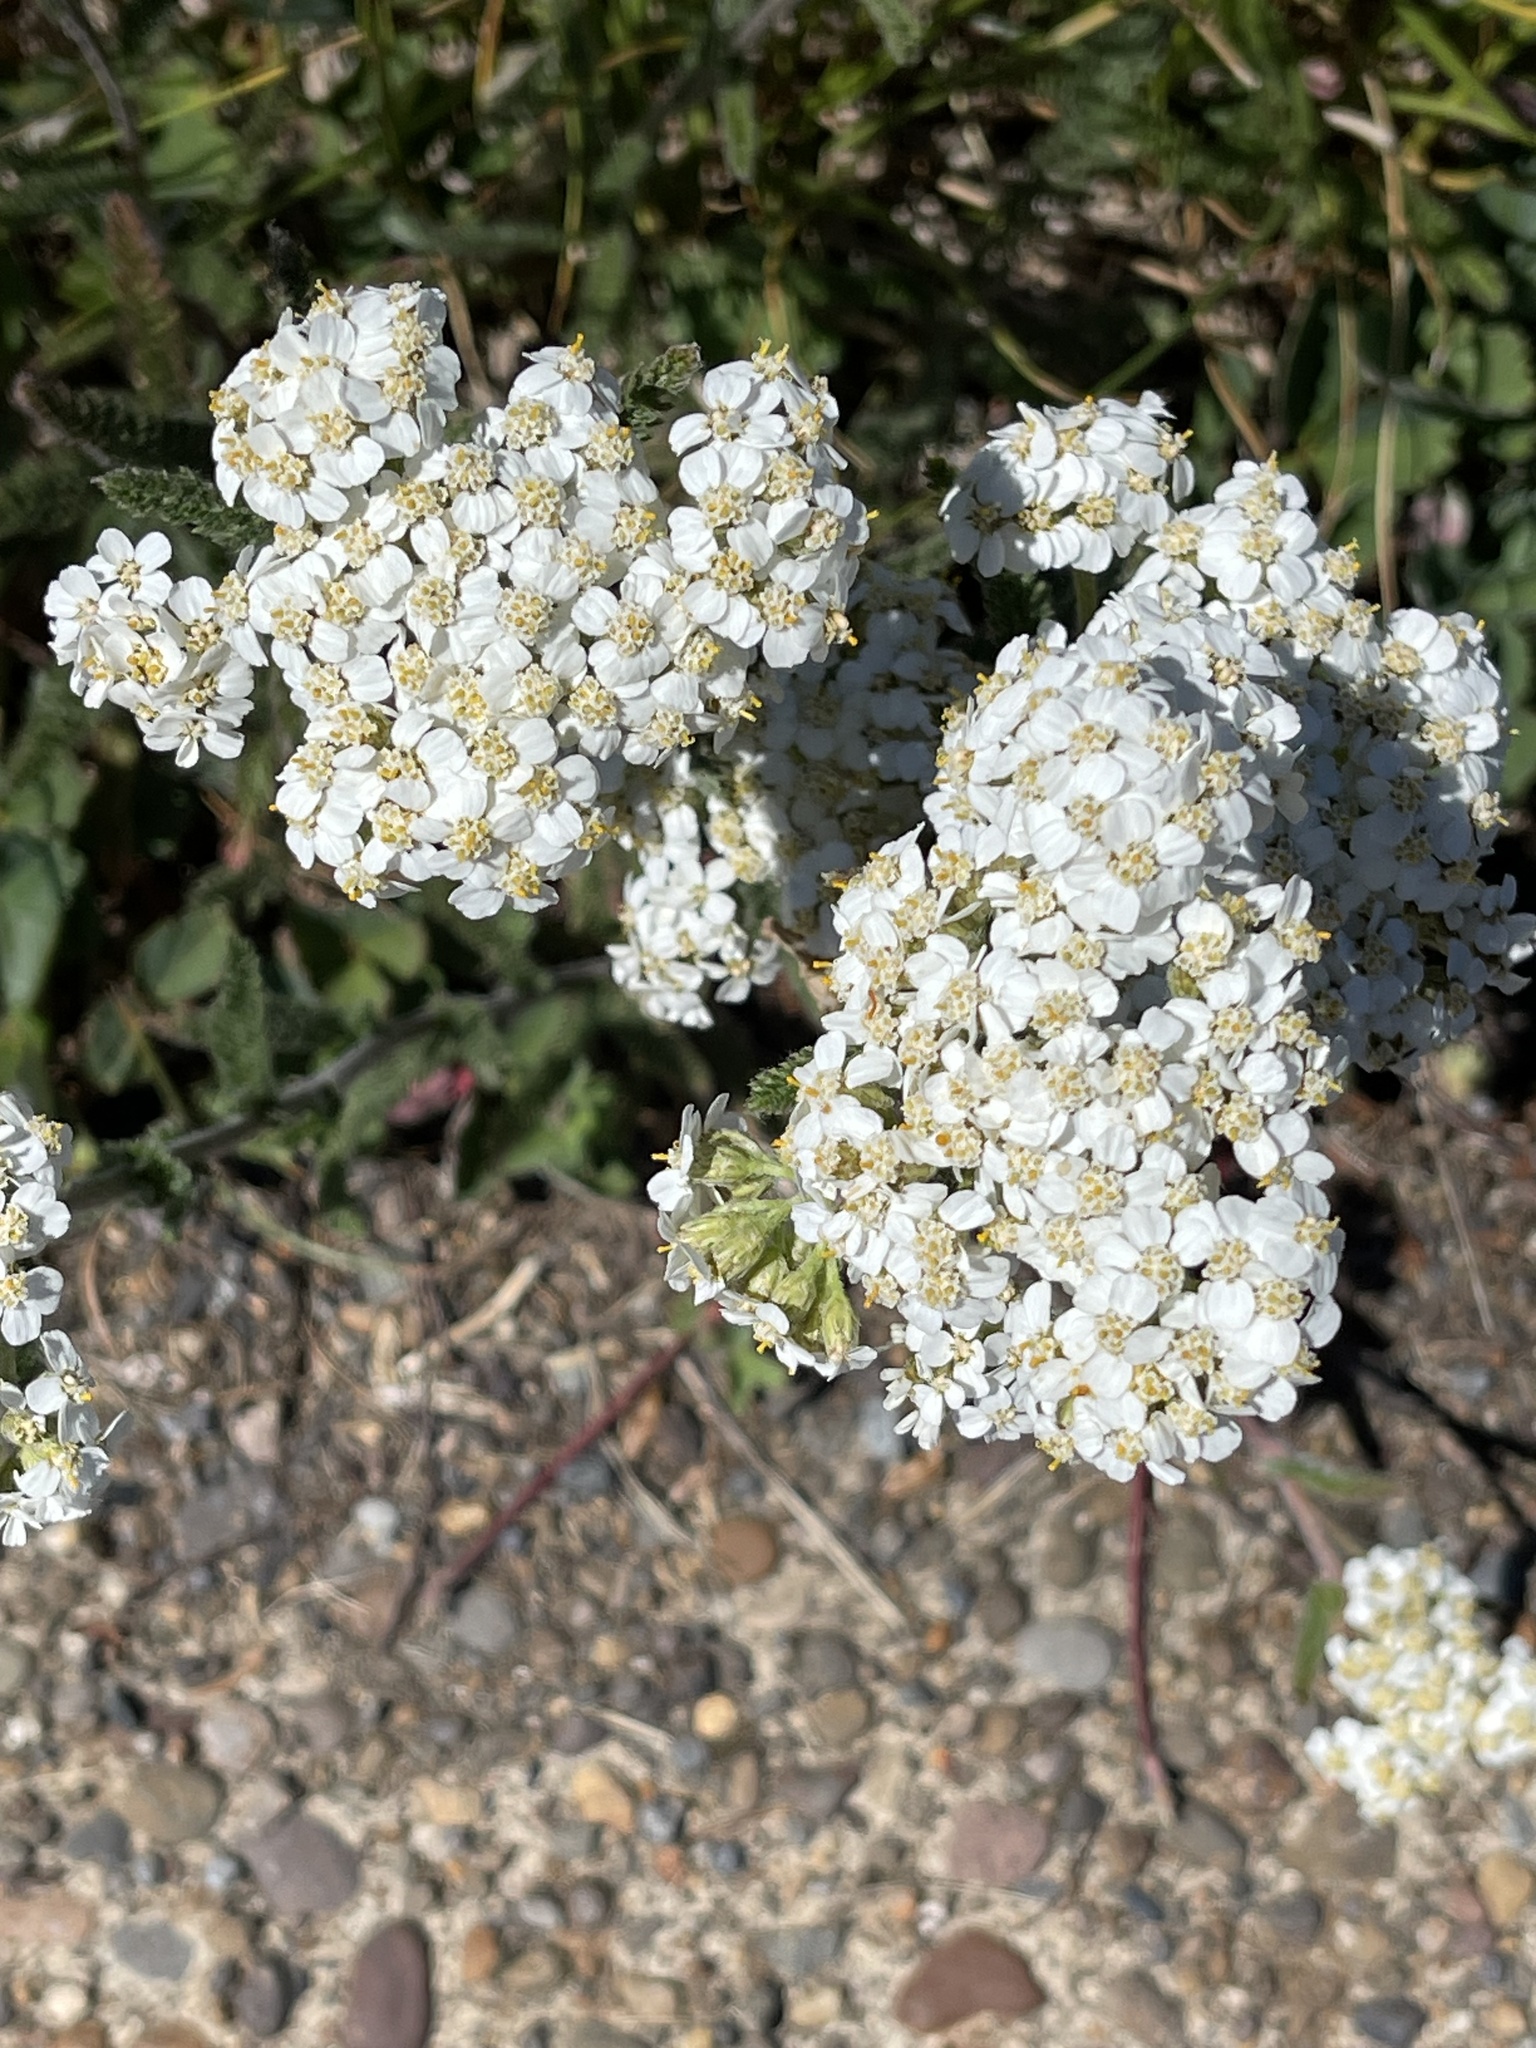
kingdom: Plantae
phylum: Tracheophyta
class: Magnoliopsida
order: Asterales
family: Asteraceae
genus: Achillea
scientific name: Achillea millefolium
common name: Yarrow
